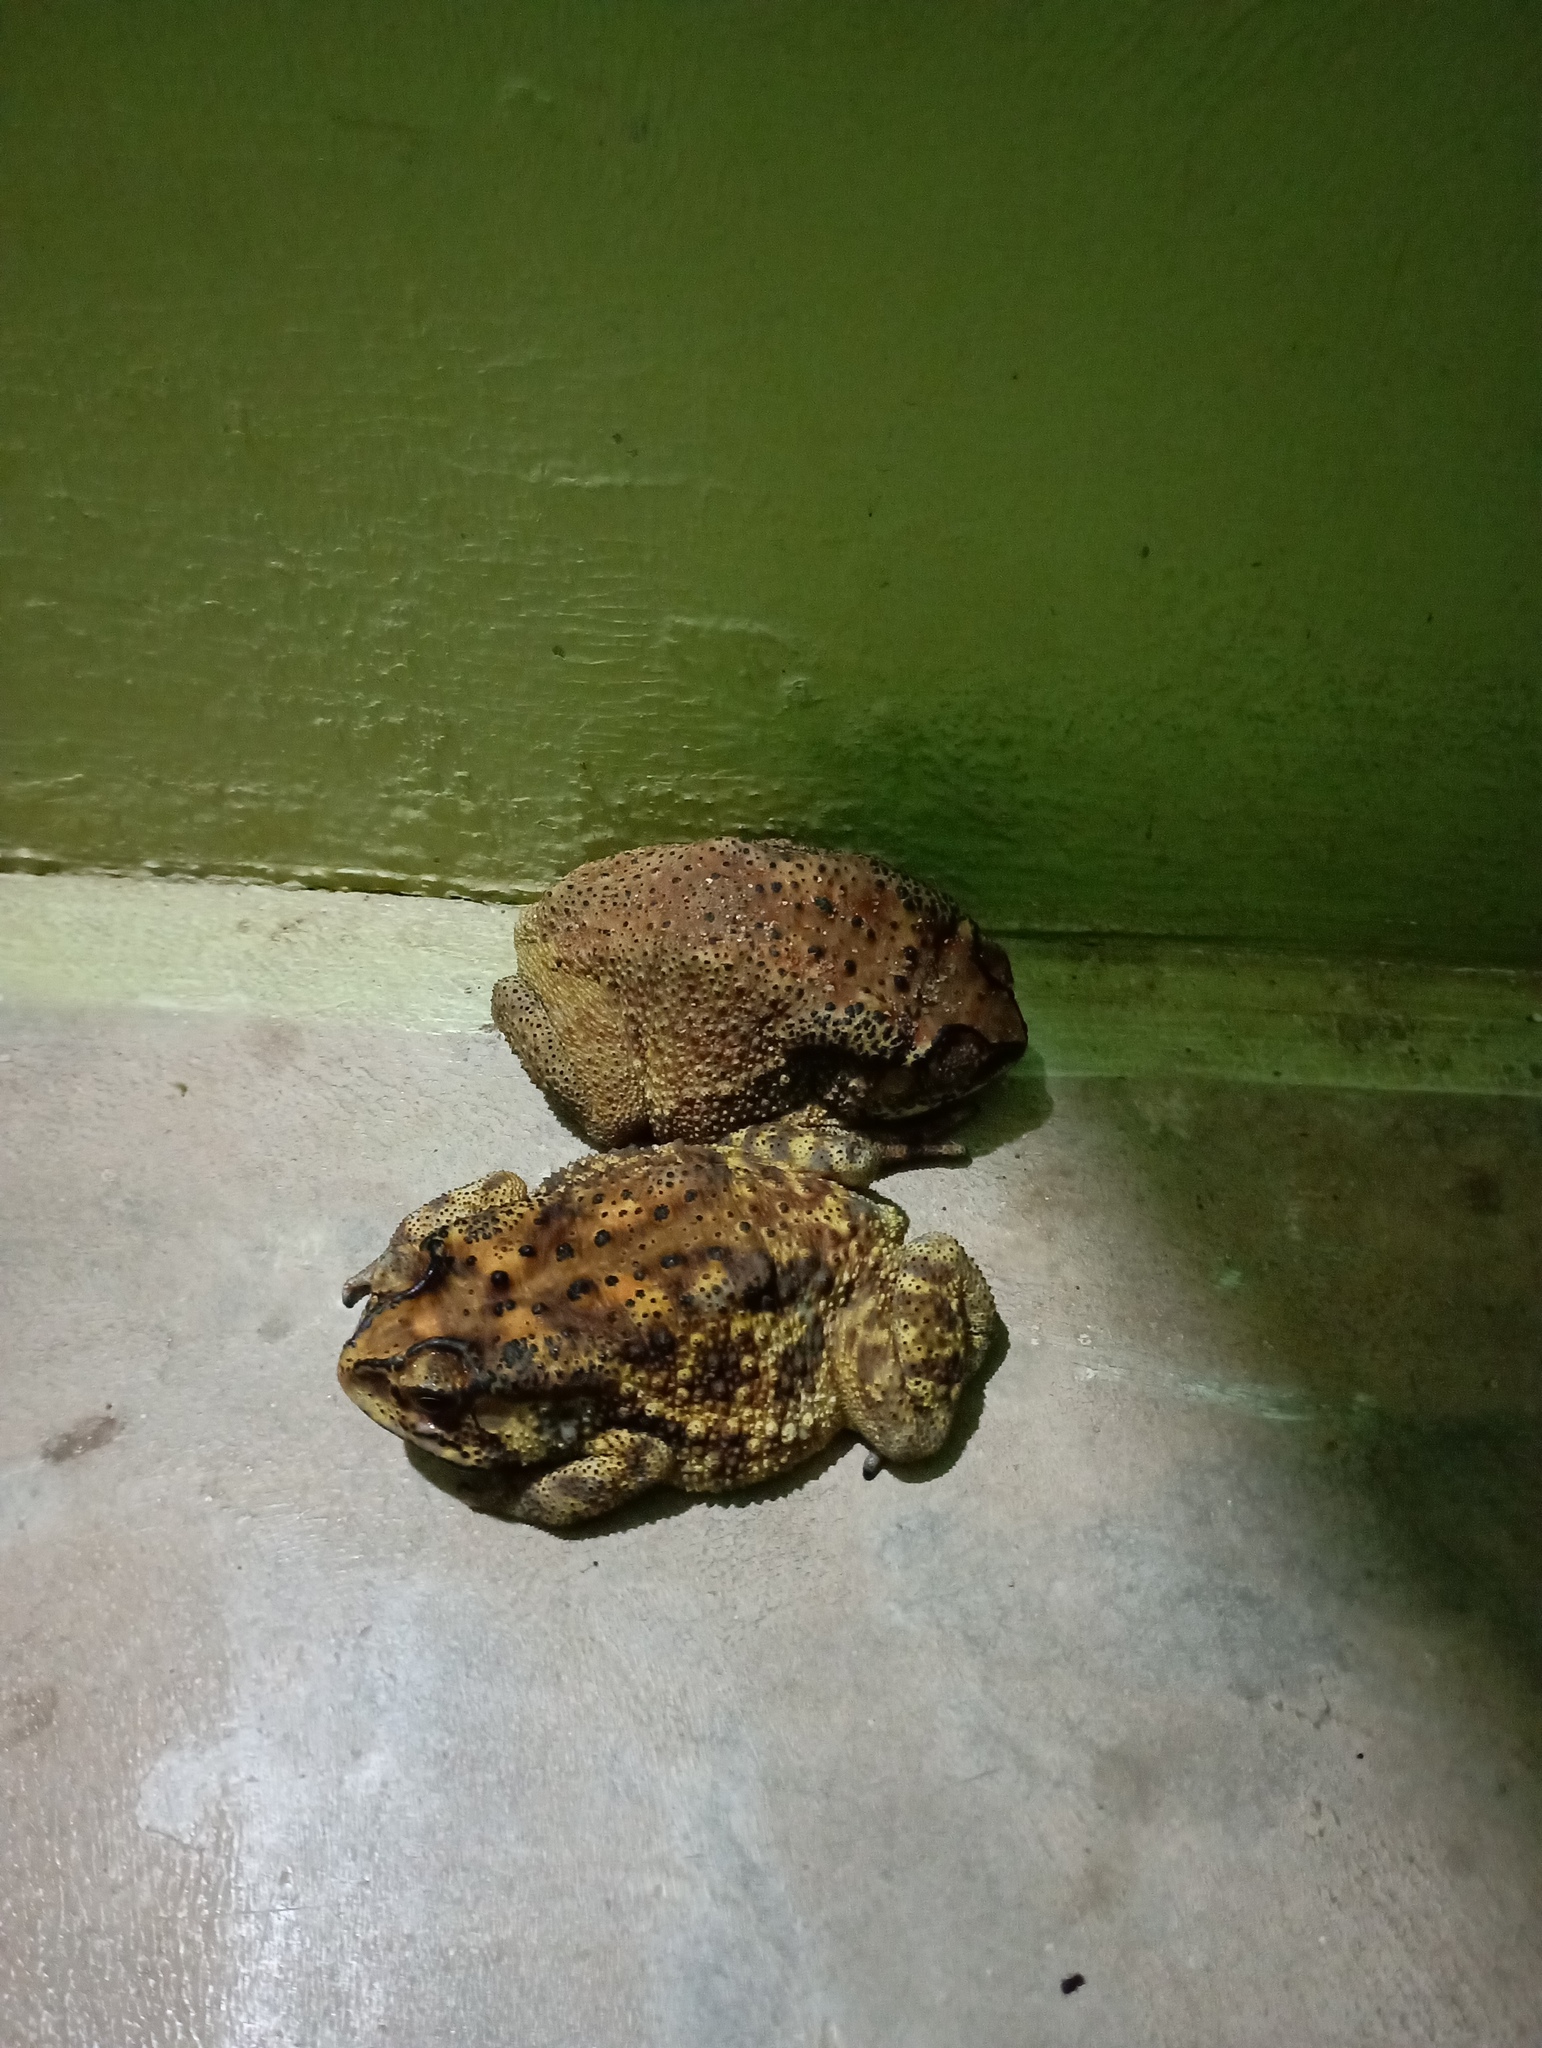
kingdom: Animalia
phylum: Chordata
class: Amphibia
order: Anura
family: Bufonidae
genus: Duttaphrynus
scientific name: Duttaphrynus melanostictus
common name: Common sunda toad
